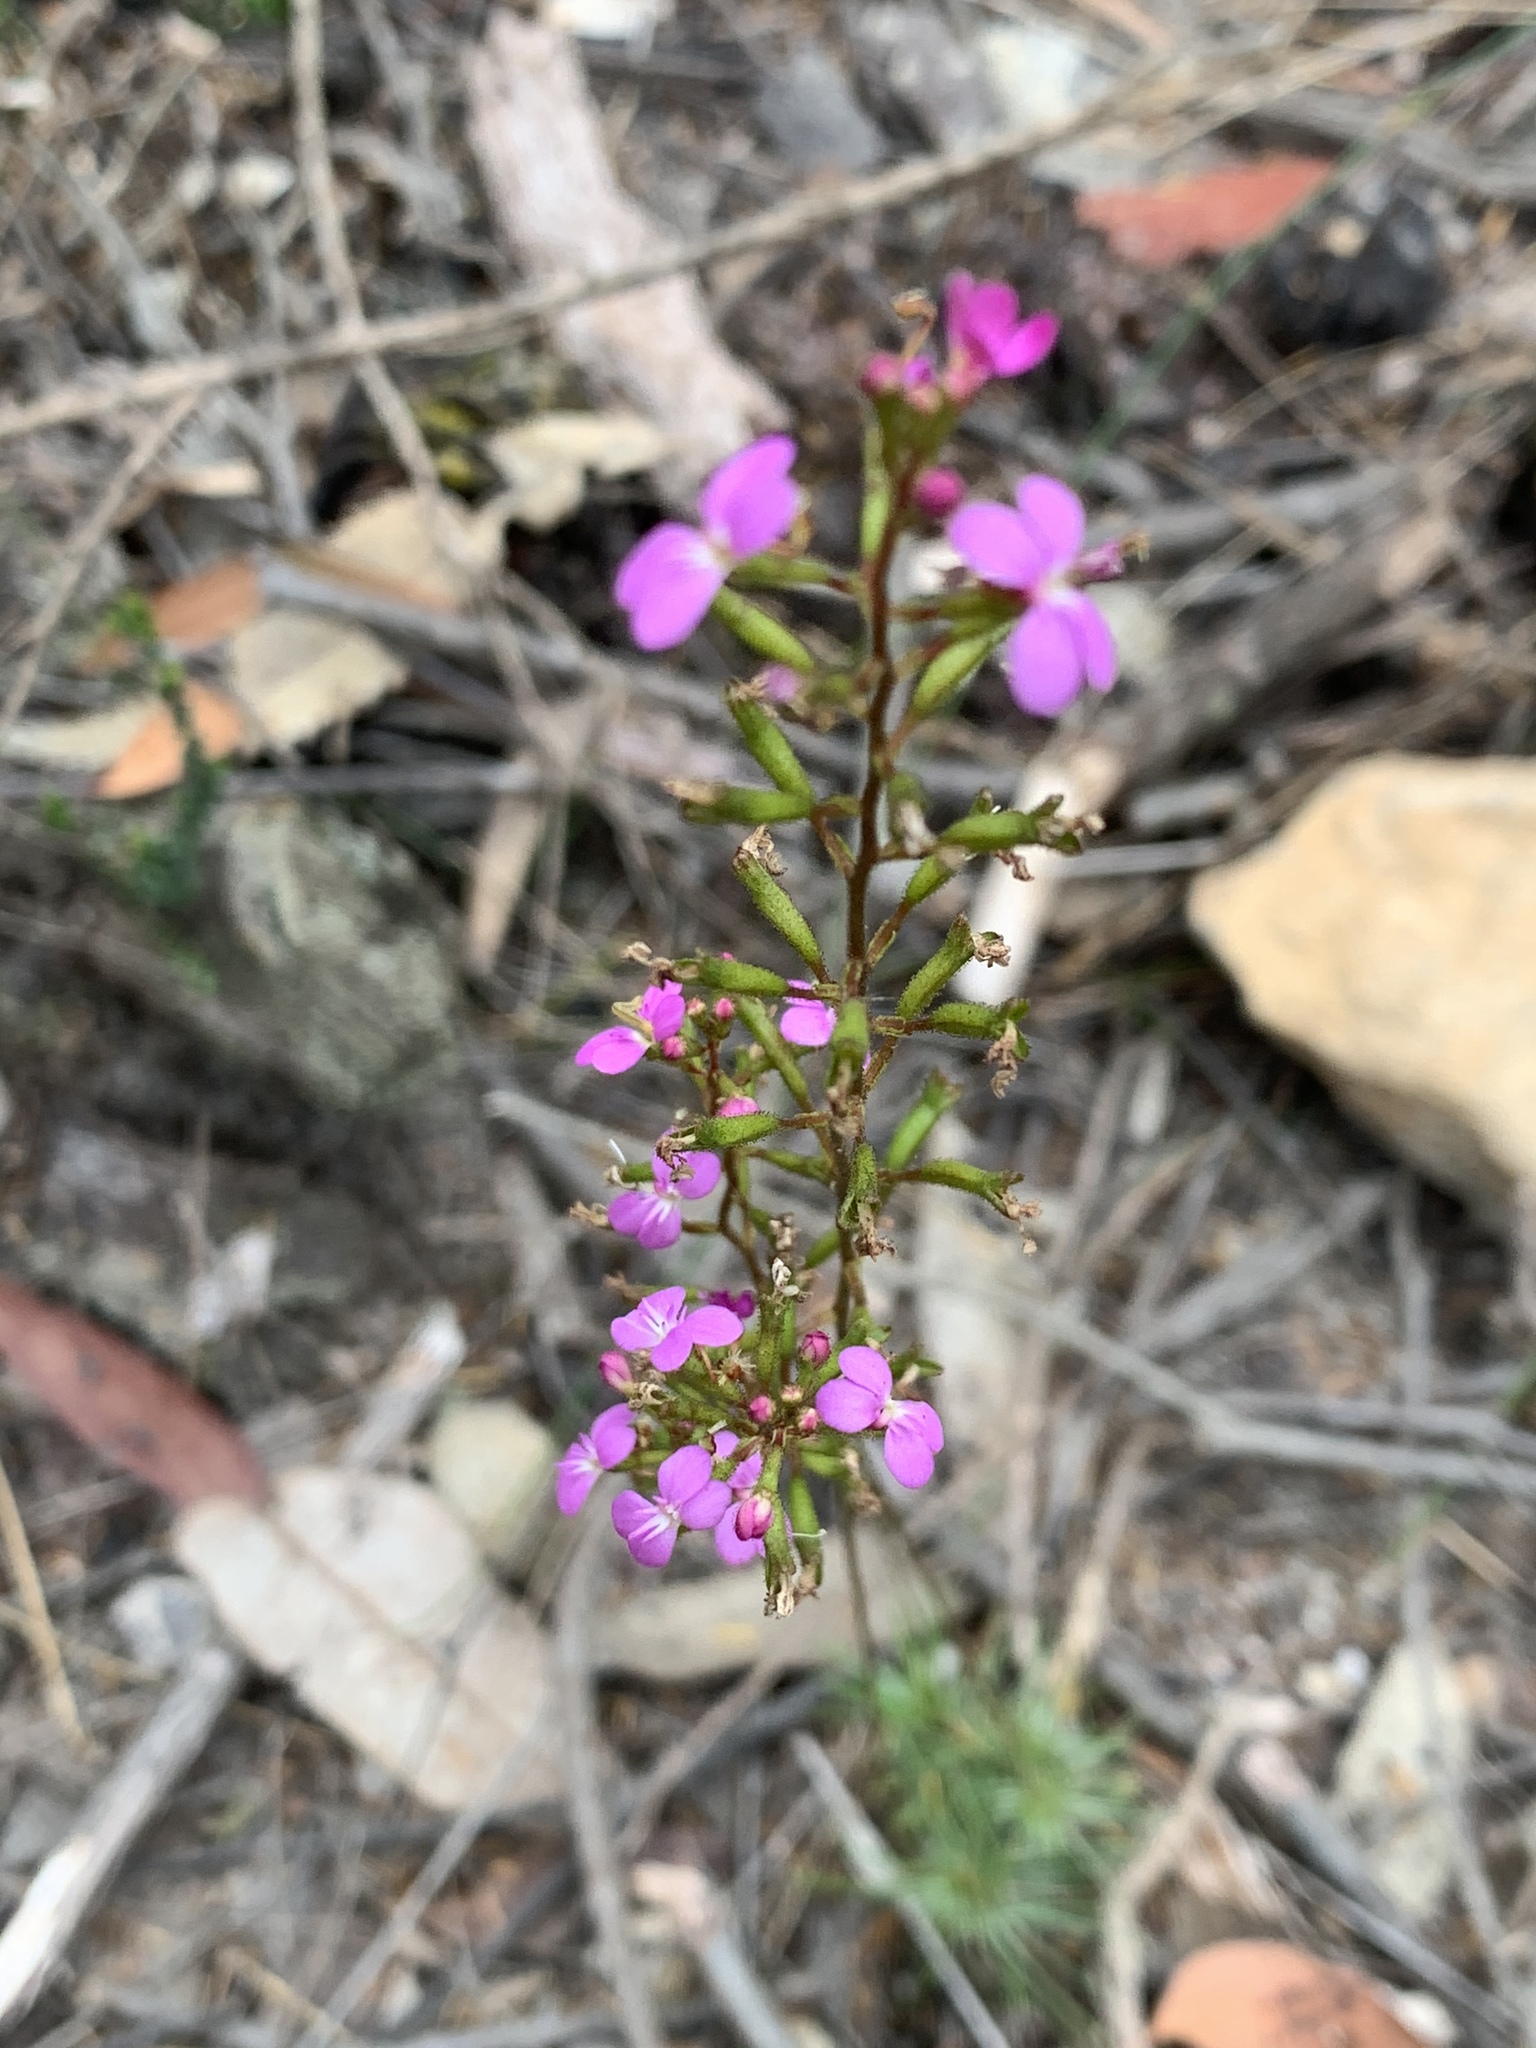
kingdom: Plantae
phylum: Tracheophyta
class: Magnoliopsida
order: Asterales
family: Stylidiaceae
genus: Stylidium
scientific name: Stylidium lineare
